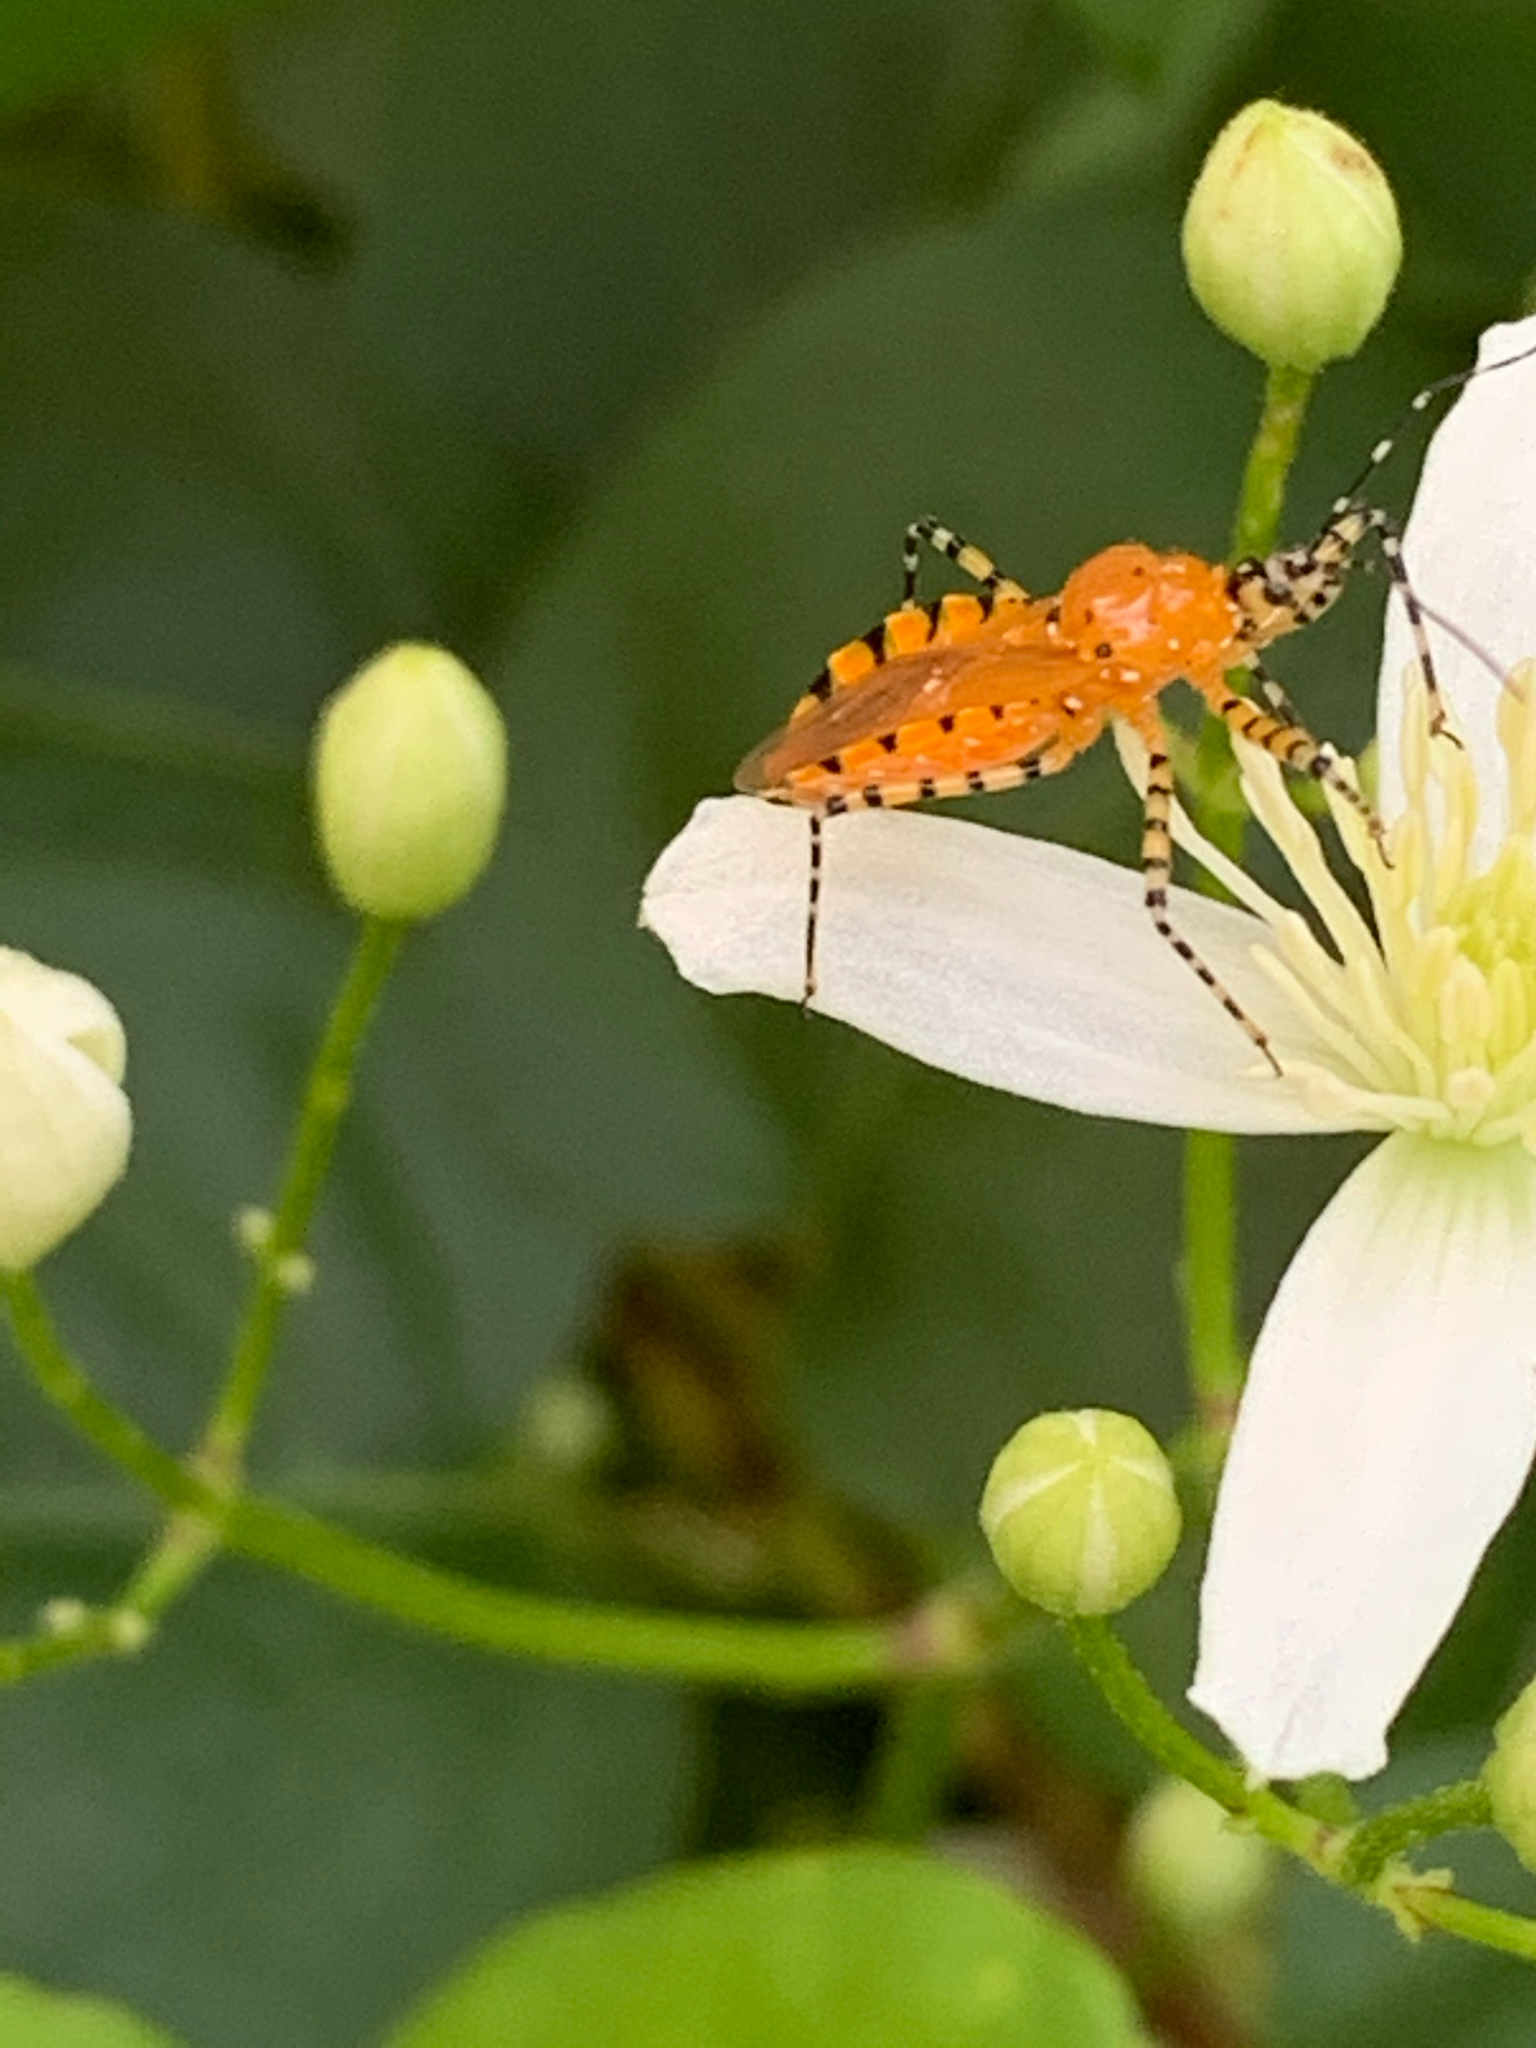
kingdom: Animalia
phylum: Arthropoda
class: Insecta
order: Hemiptera
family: Reduviidae
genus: Pselliopus
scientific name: Pselliopus barberi
